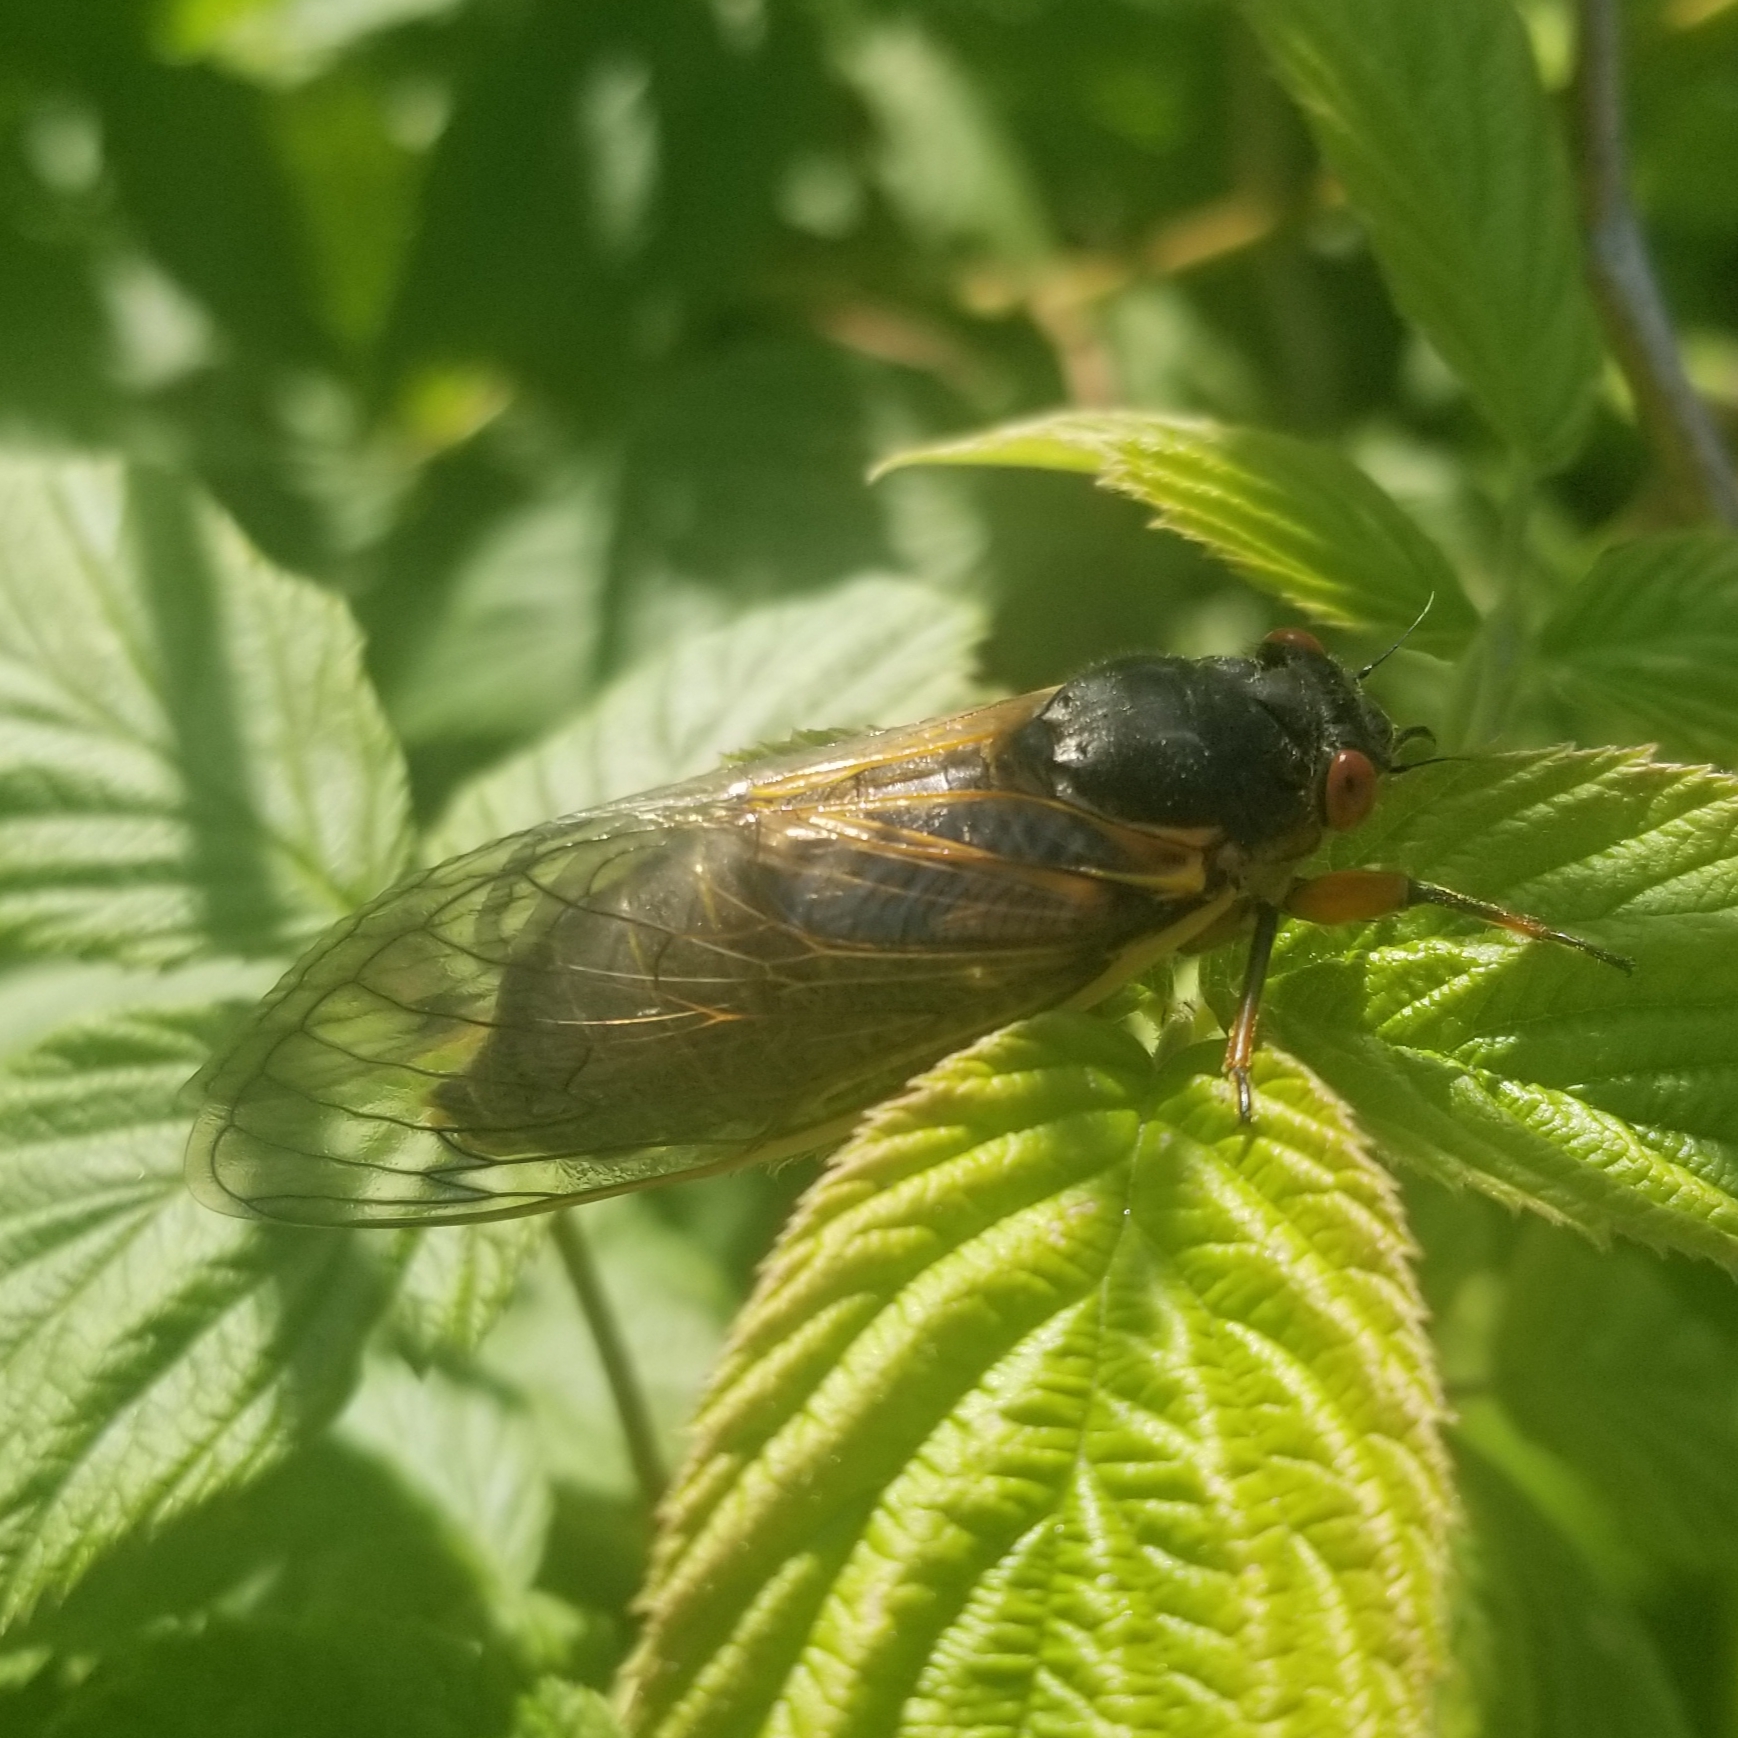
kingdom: Animalia
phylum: Arthropoda
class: Insecta
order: Hemiptera
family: Cicadidae
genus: Magicicada
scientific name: Magicicada septendecim
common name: Periodical cicada
